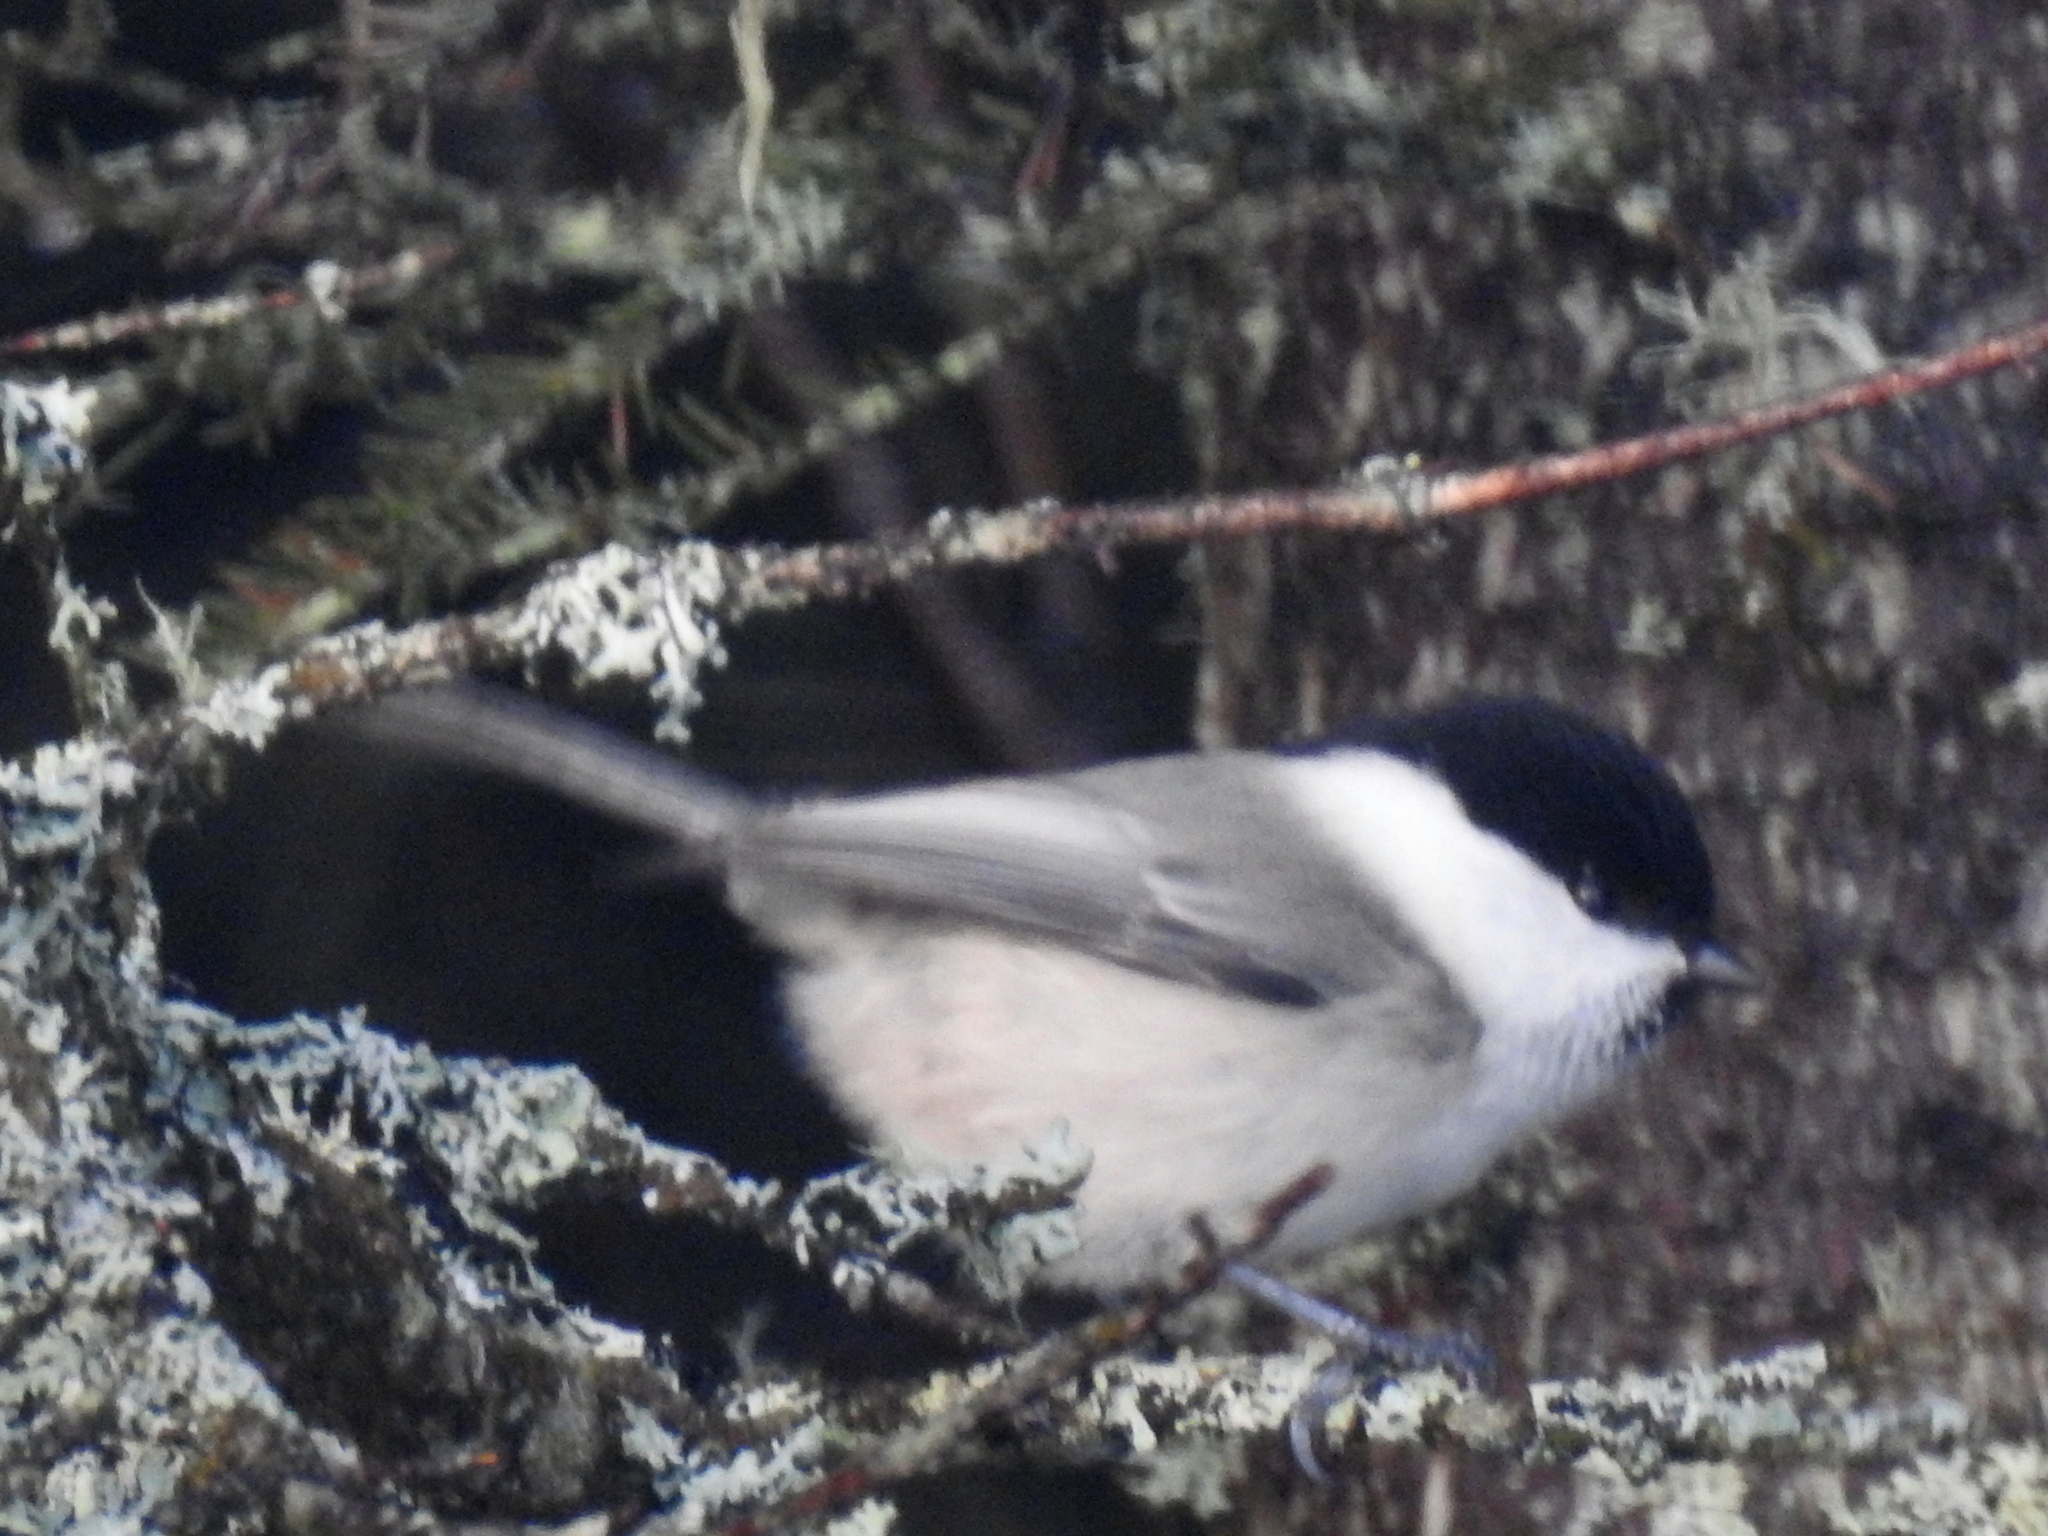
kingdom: Animalia
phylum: Chordata
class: Aves
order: Passeriformes
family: Paridae
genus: Poecile
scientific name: Poecile montanus
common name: Willow tit
